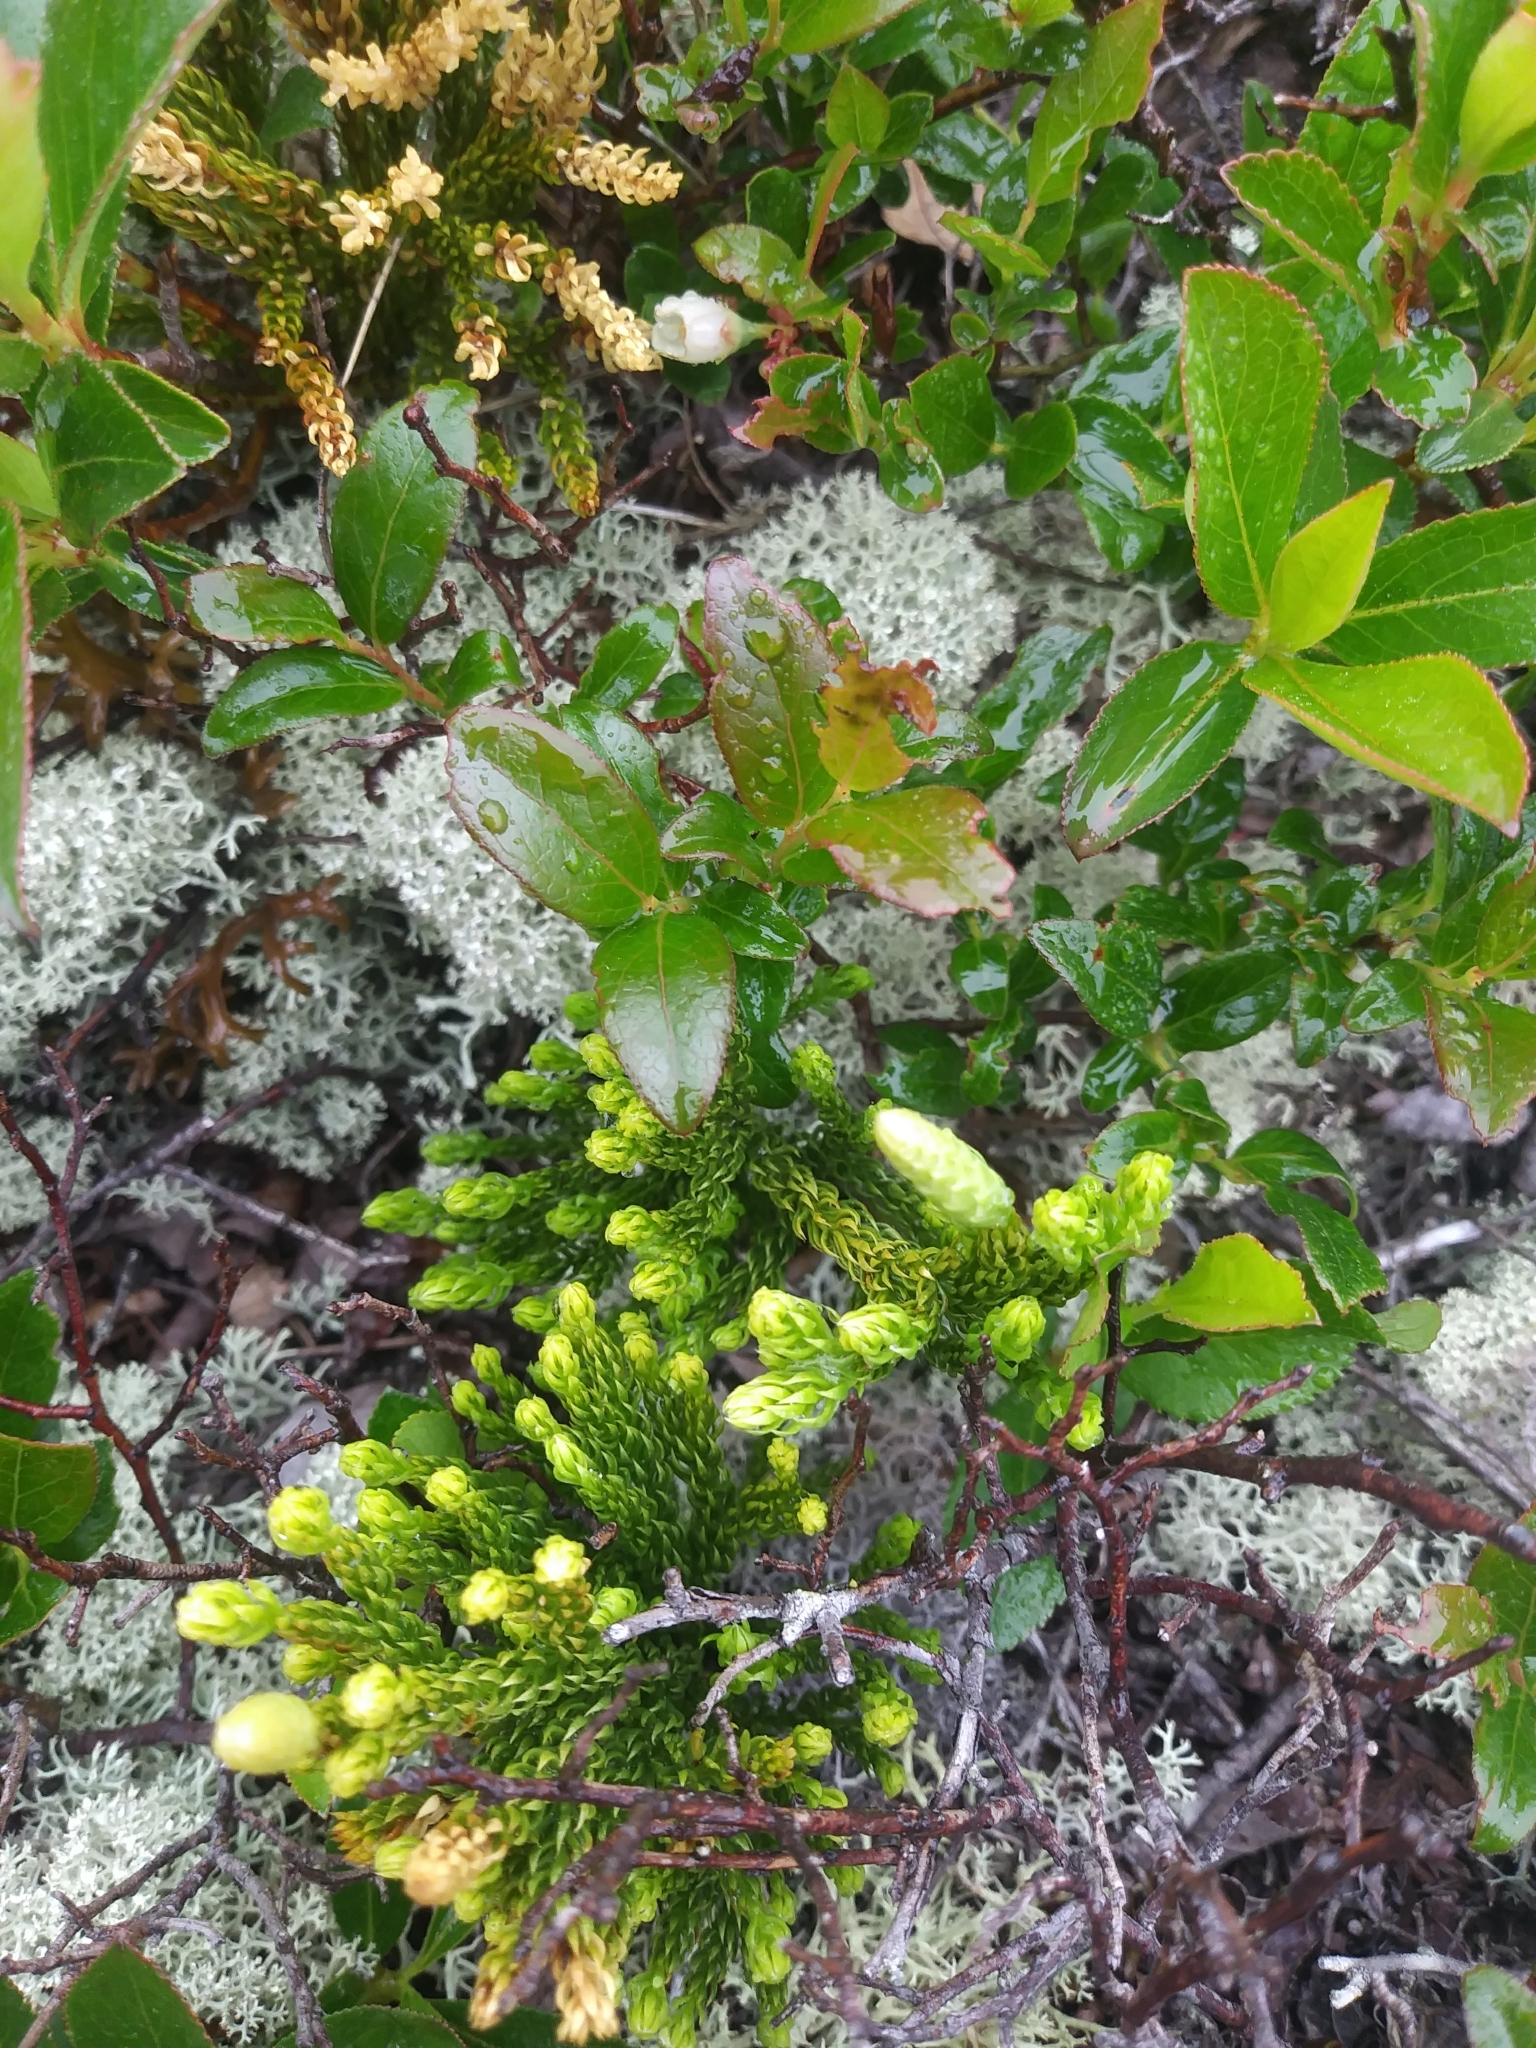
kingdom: Plantae
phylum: Tracheophyta
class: Lycopodiopsida
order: Lycopodiales
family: Lycopodiaceae
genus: Dendrolycopodium
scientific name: Dendrolycopodium hickeyi
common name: Hickey's clubmoss
